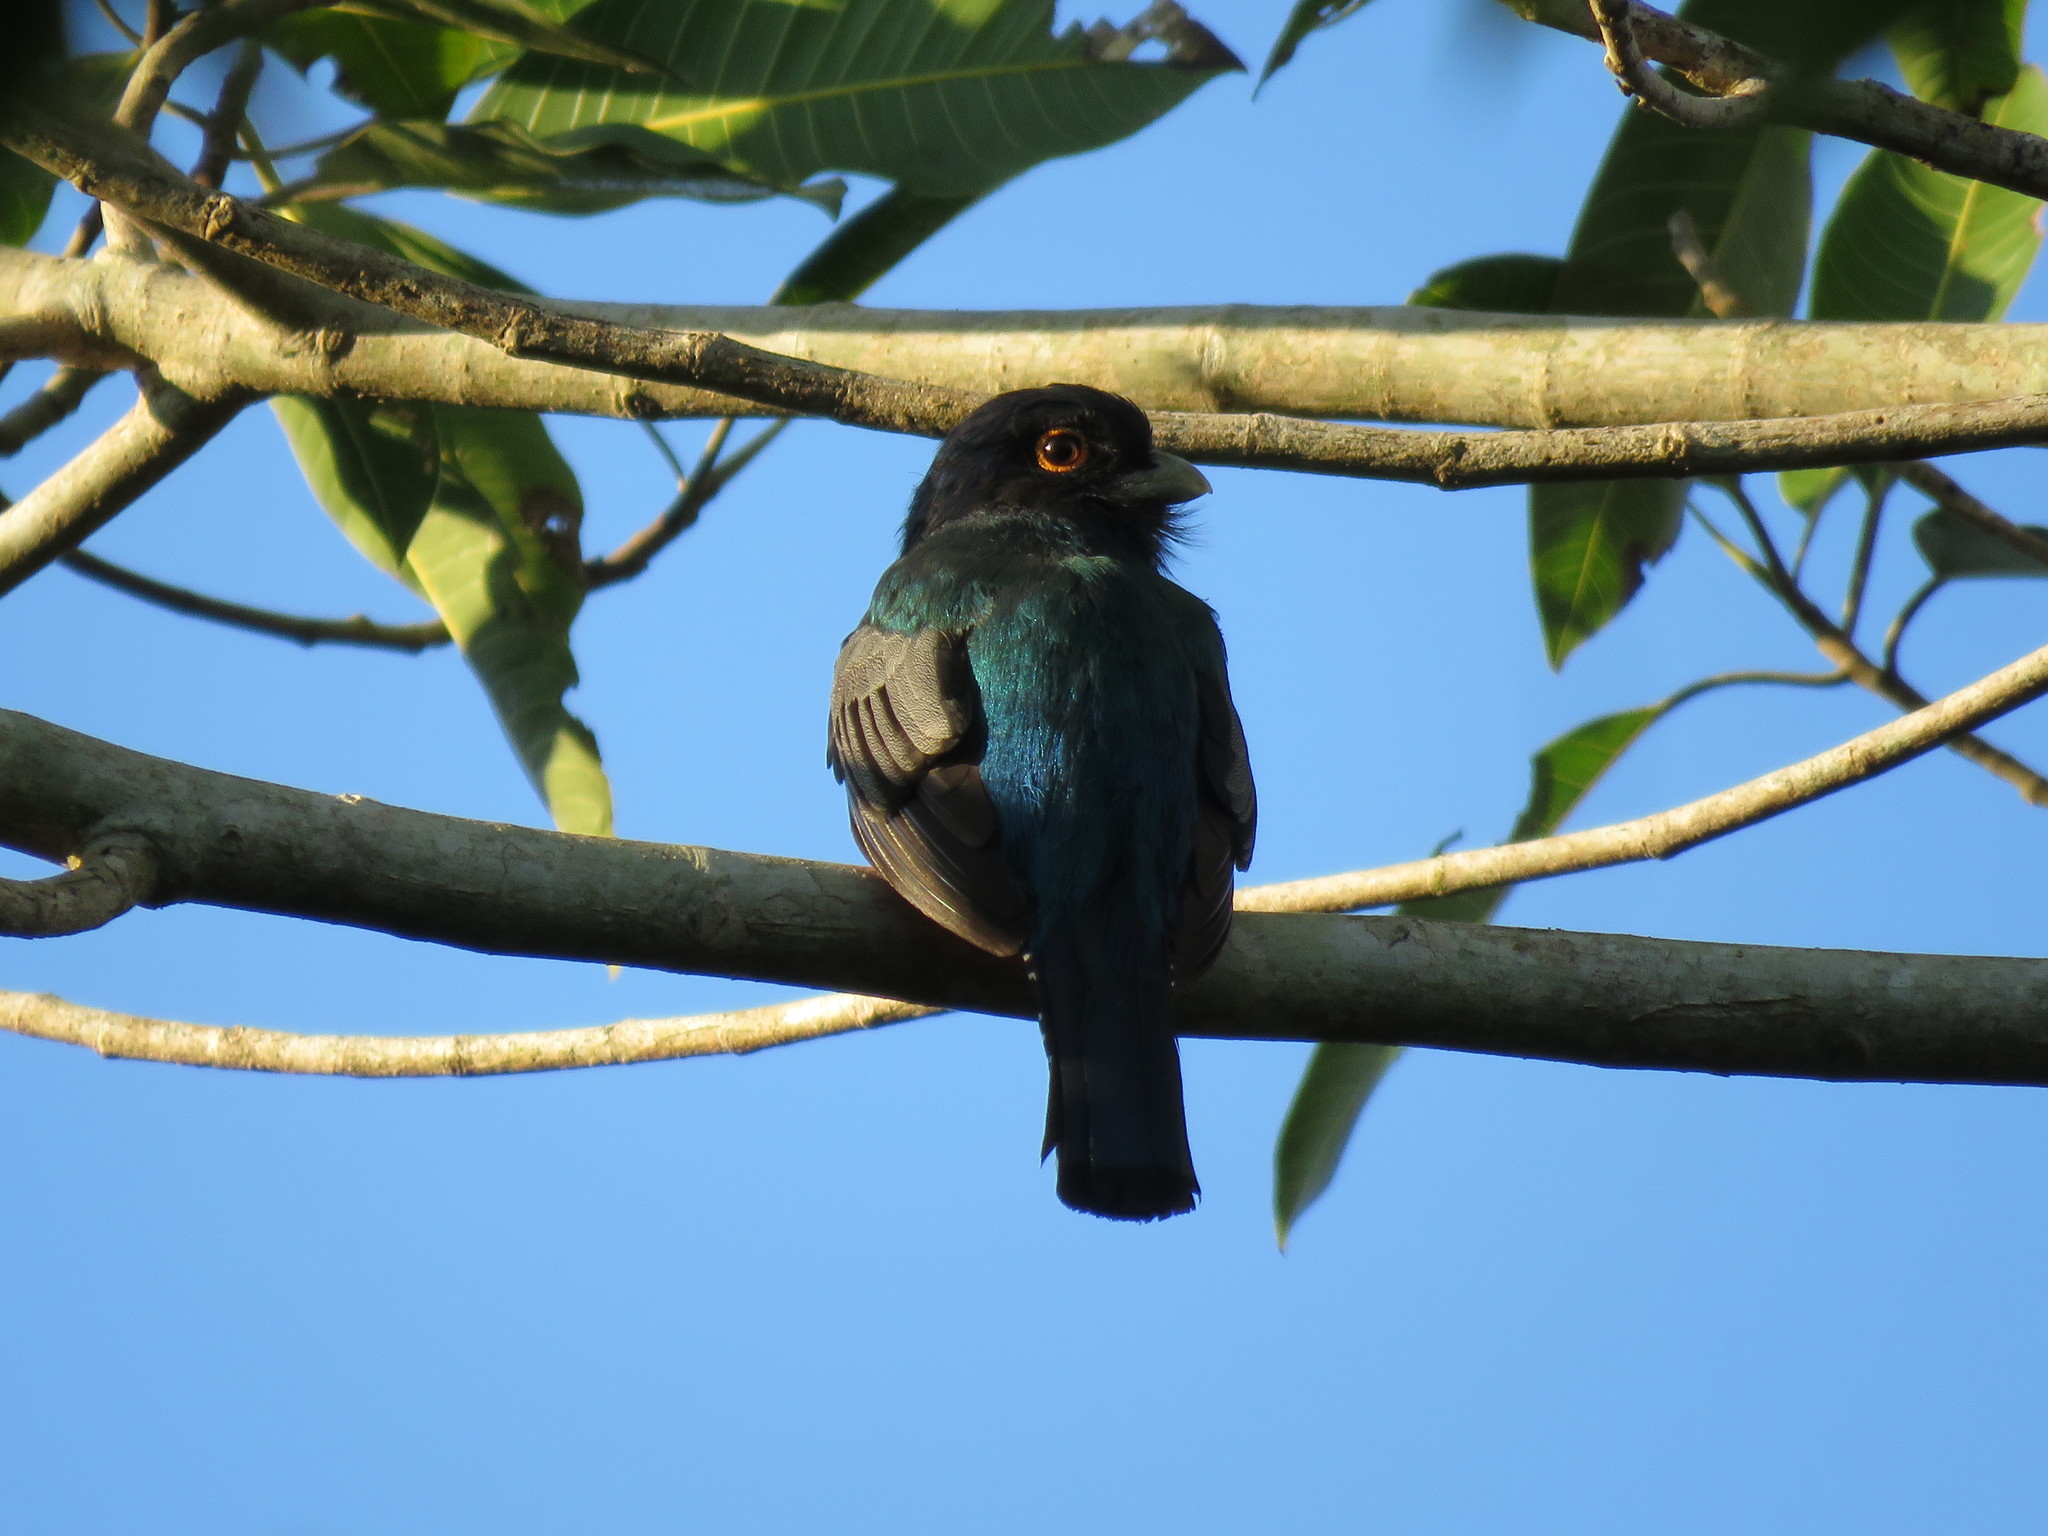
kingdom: Animalia
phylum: Chordata
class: Aves
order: Trogoniformes
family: Trogonidae
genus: Trogon
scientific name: Trogon curucui
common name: Blue-crowned trogon
